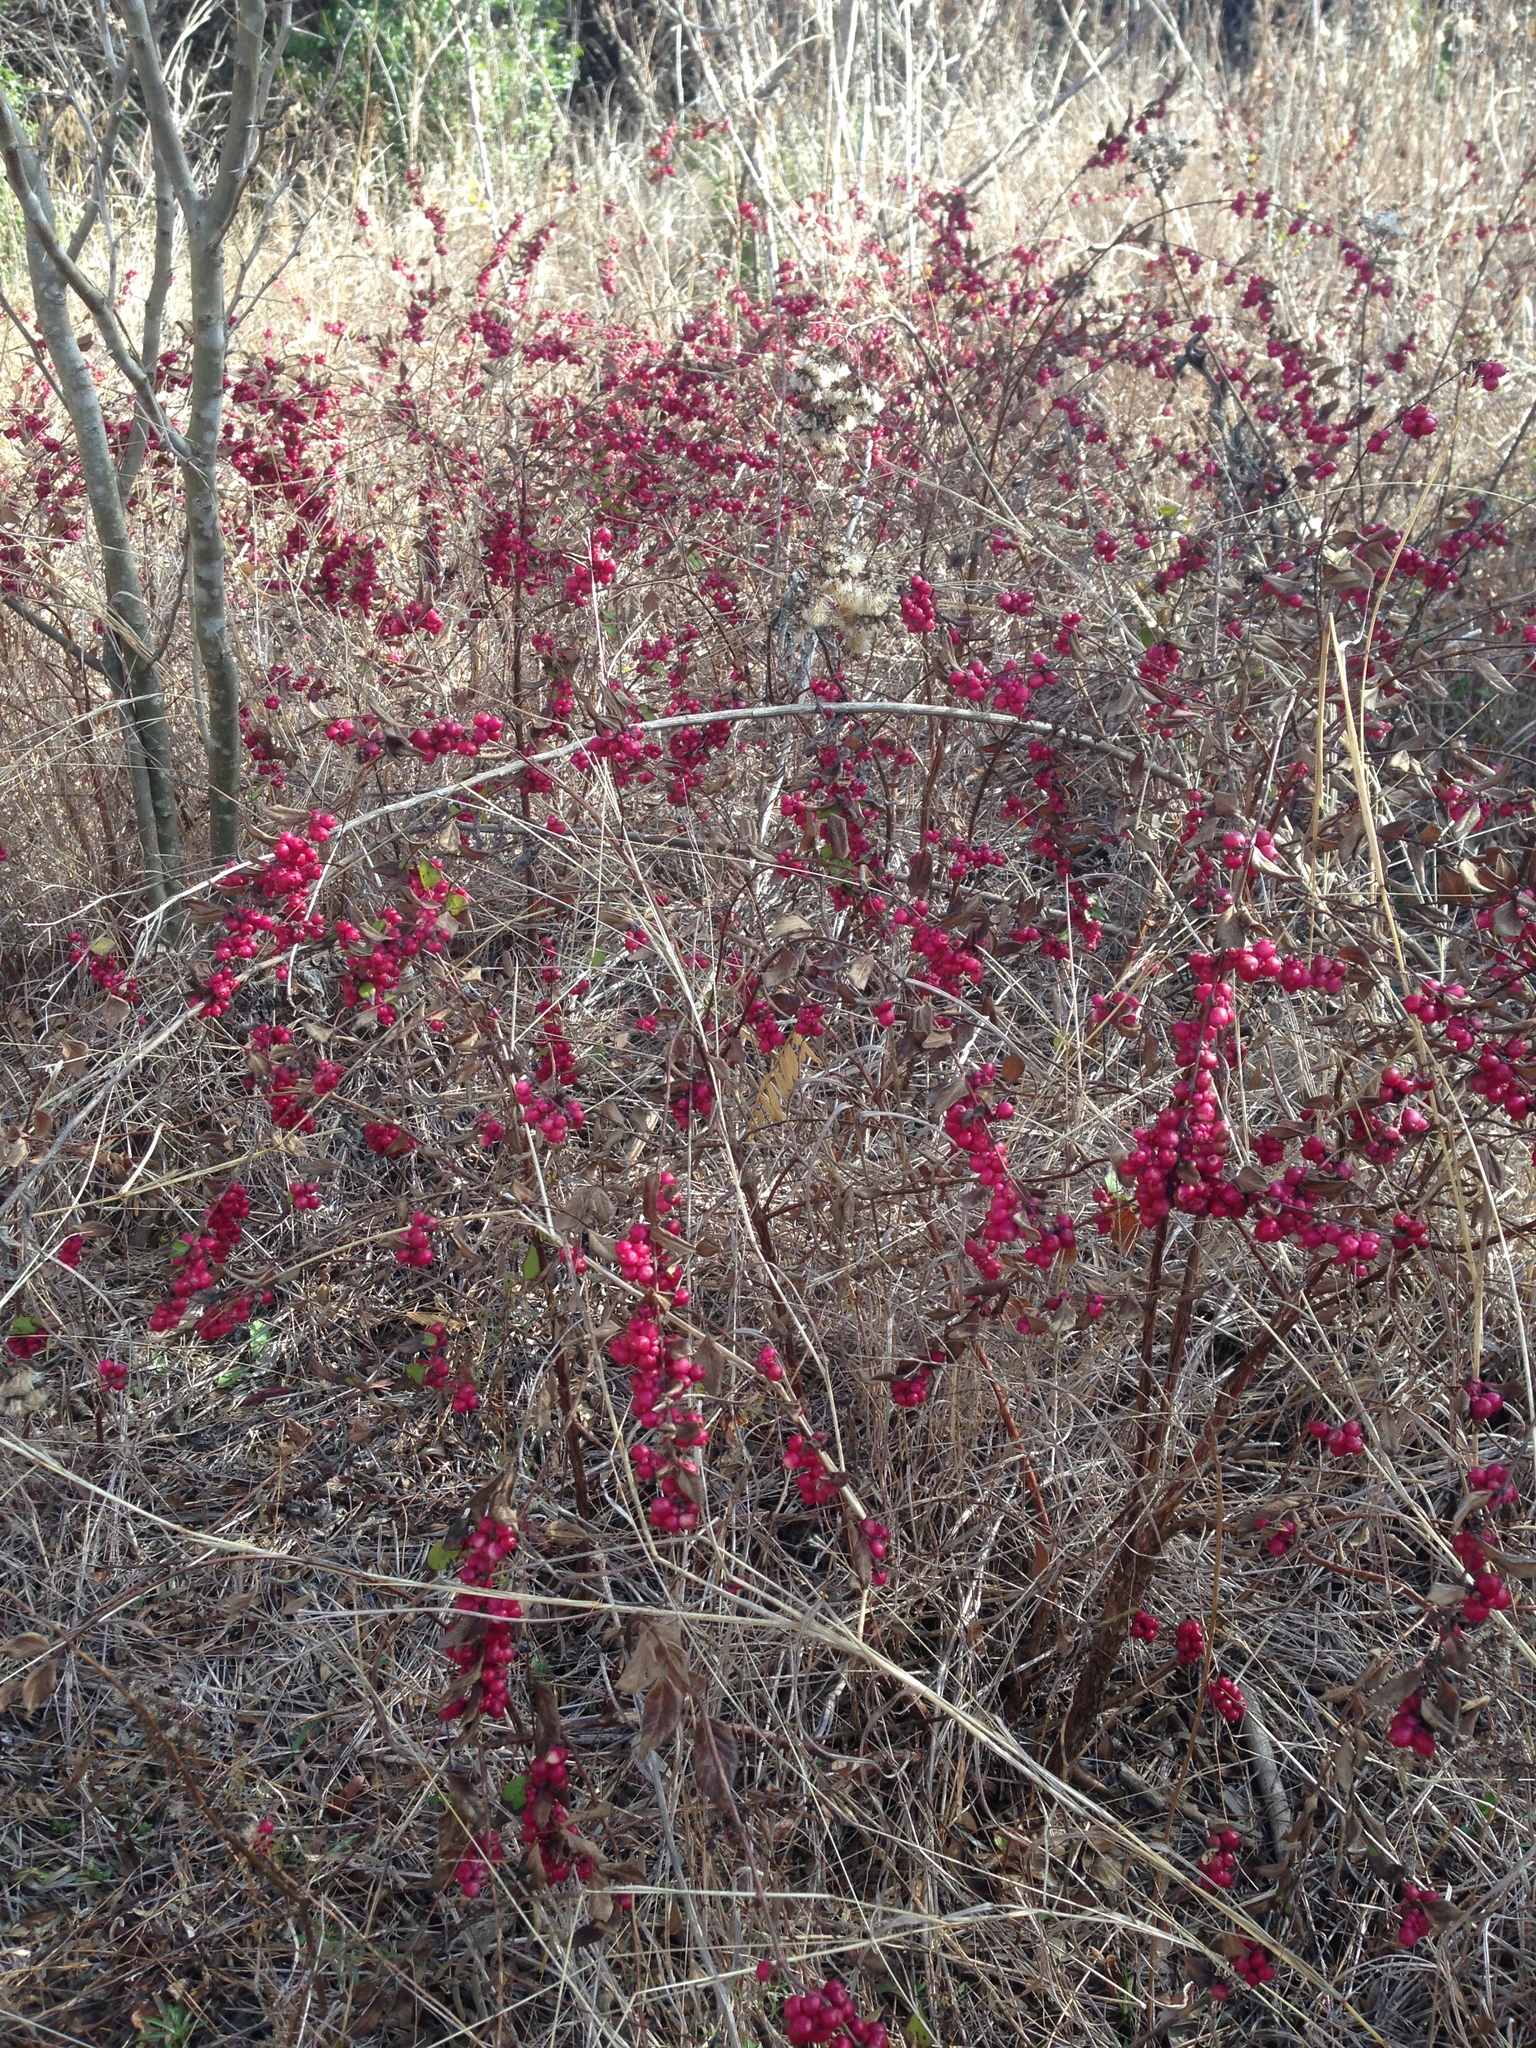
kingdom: Plantae
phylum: Tracheophyta
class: Magnoliopsida
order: Dipsacales
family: Caprifoliaceae
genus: Symphoricarpos
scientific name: Symphoricarpos orbiculatus
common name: Coralberry
